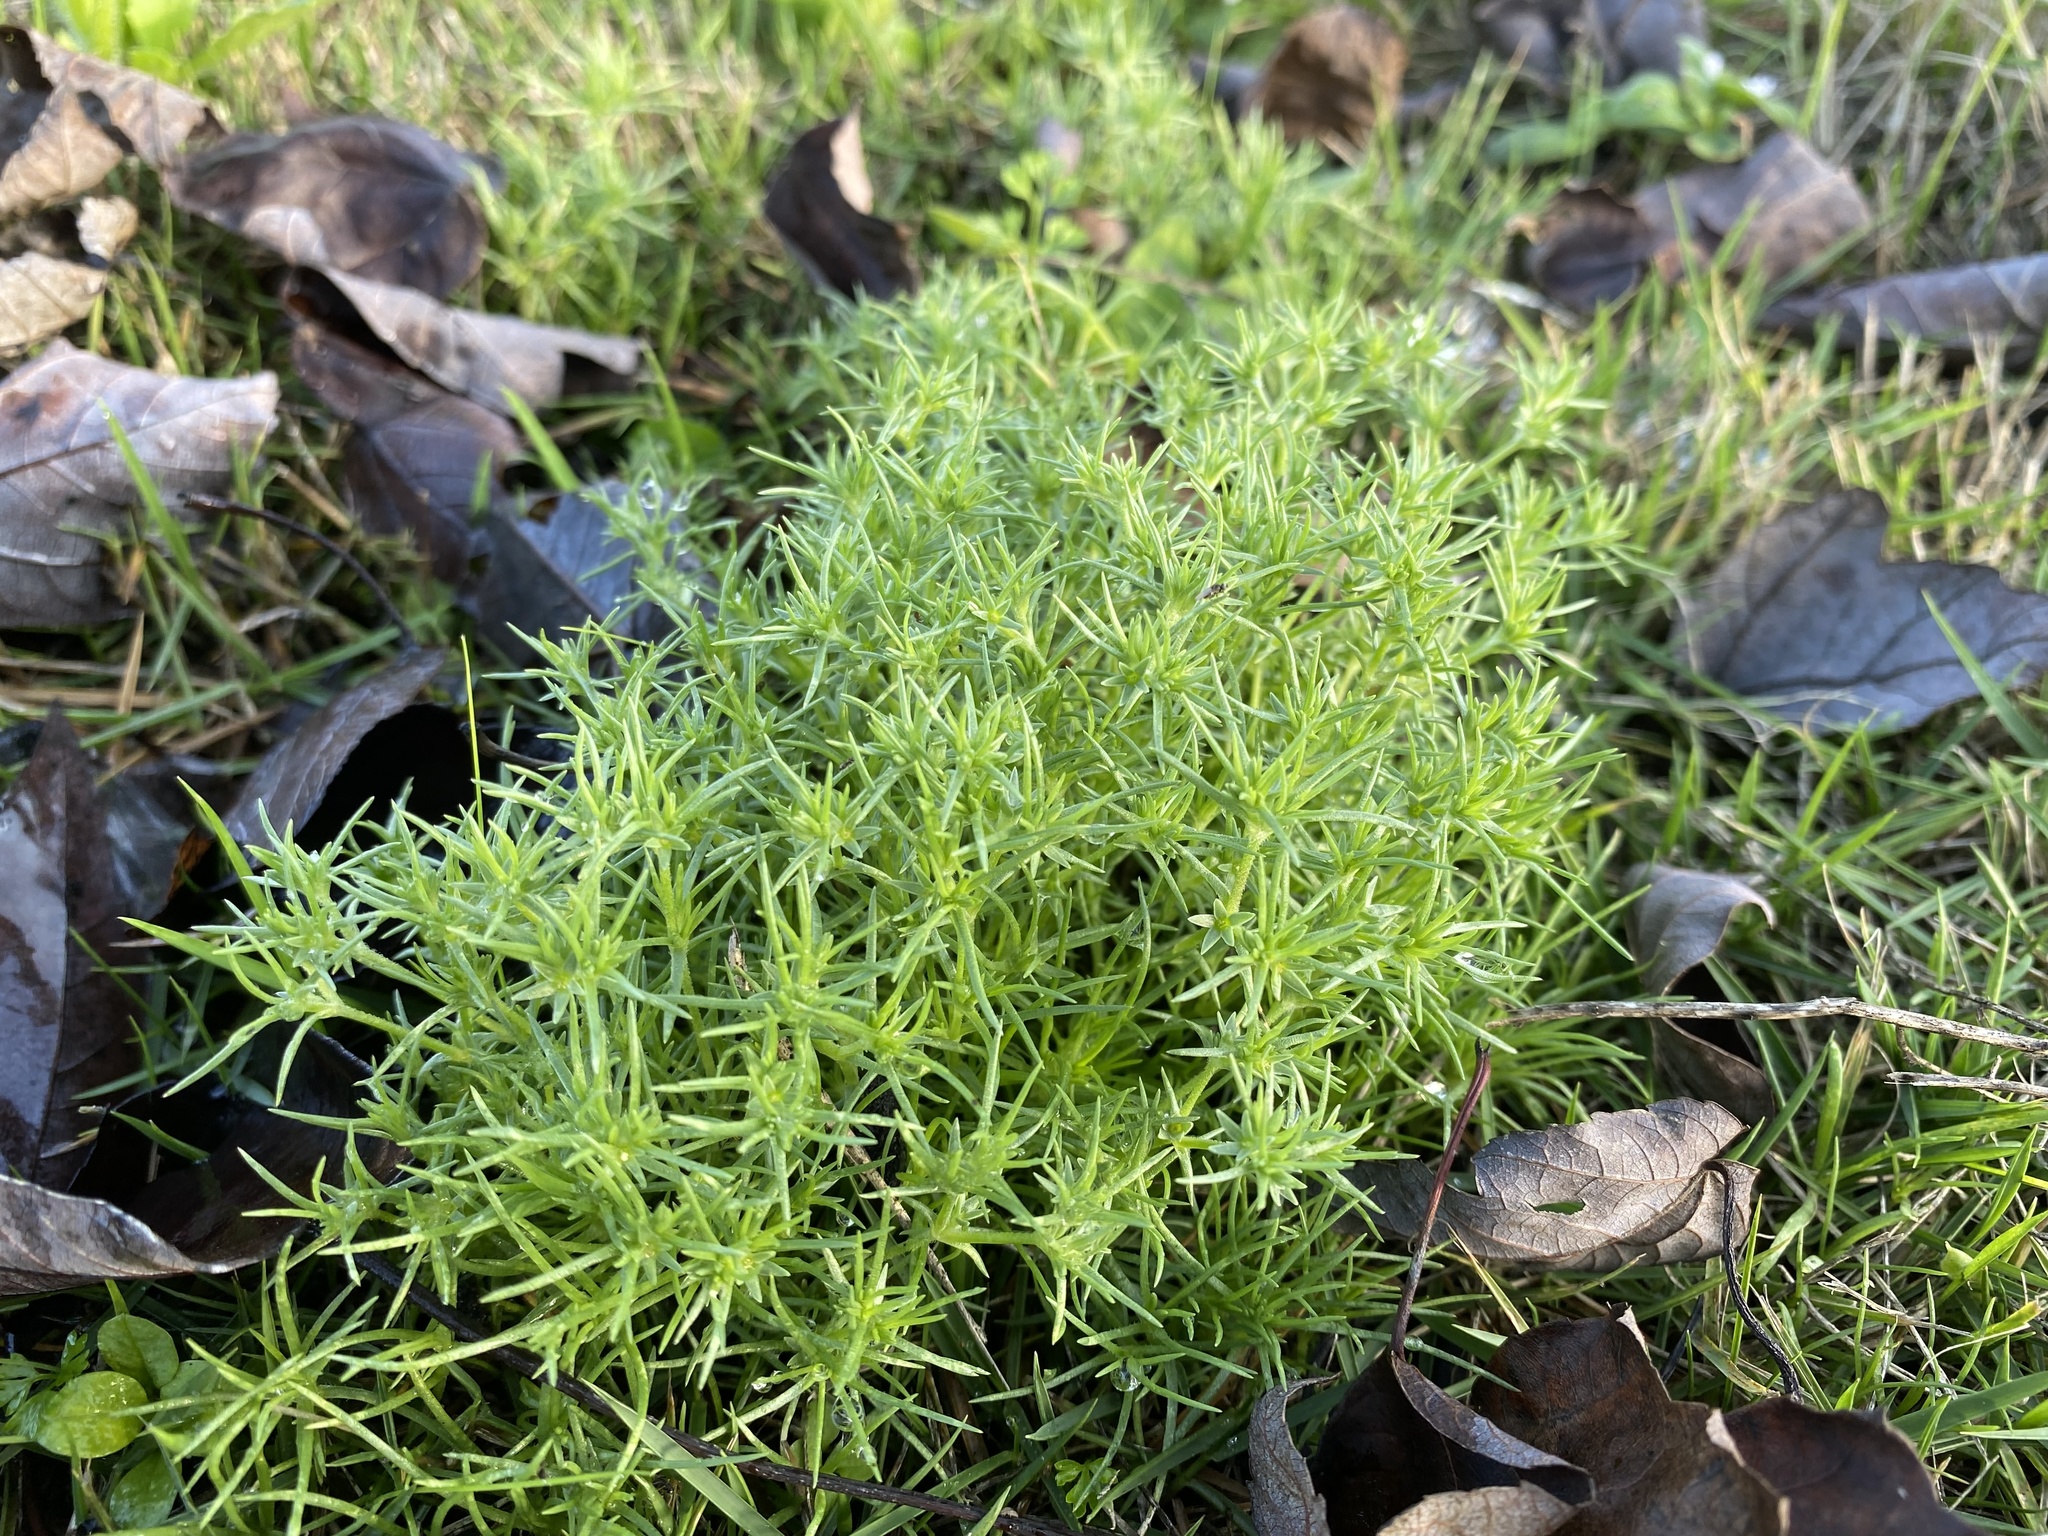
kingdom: Plantae
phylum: Tracheophyta
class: Magnoliopsida
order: Caryophyllales
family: Caryophyllaceae
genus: Scleranthus
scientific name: Scleranthus annuus
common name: Annual knawel
